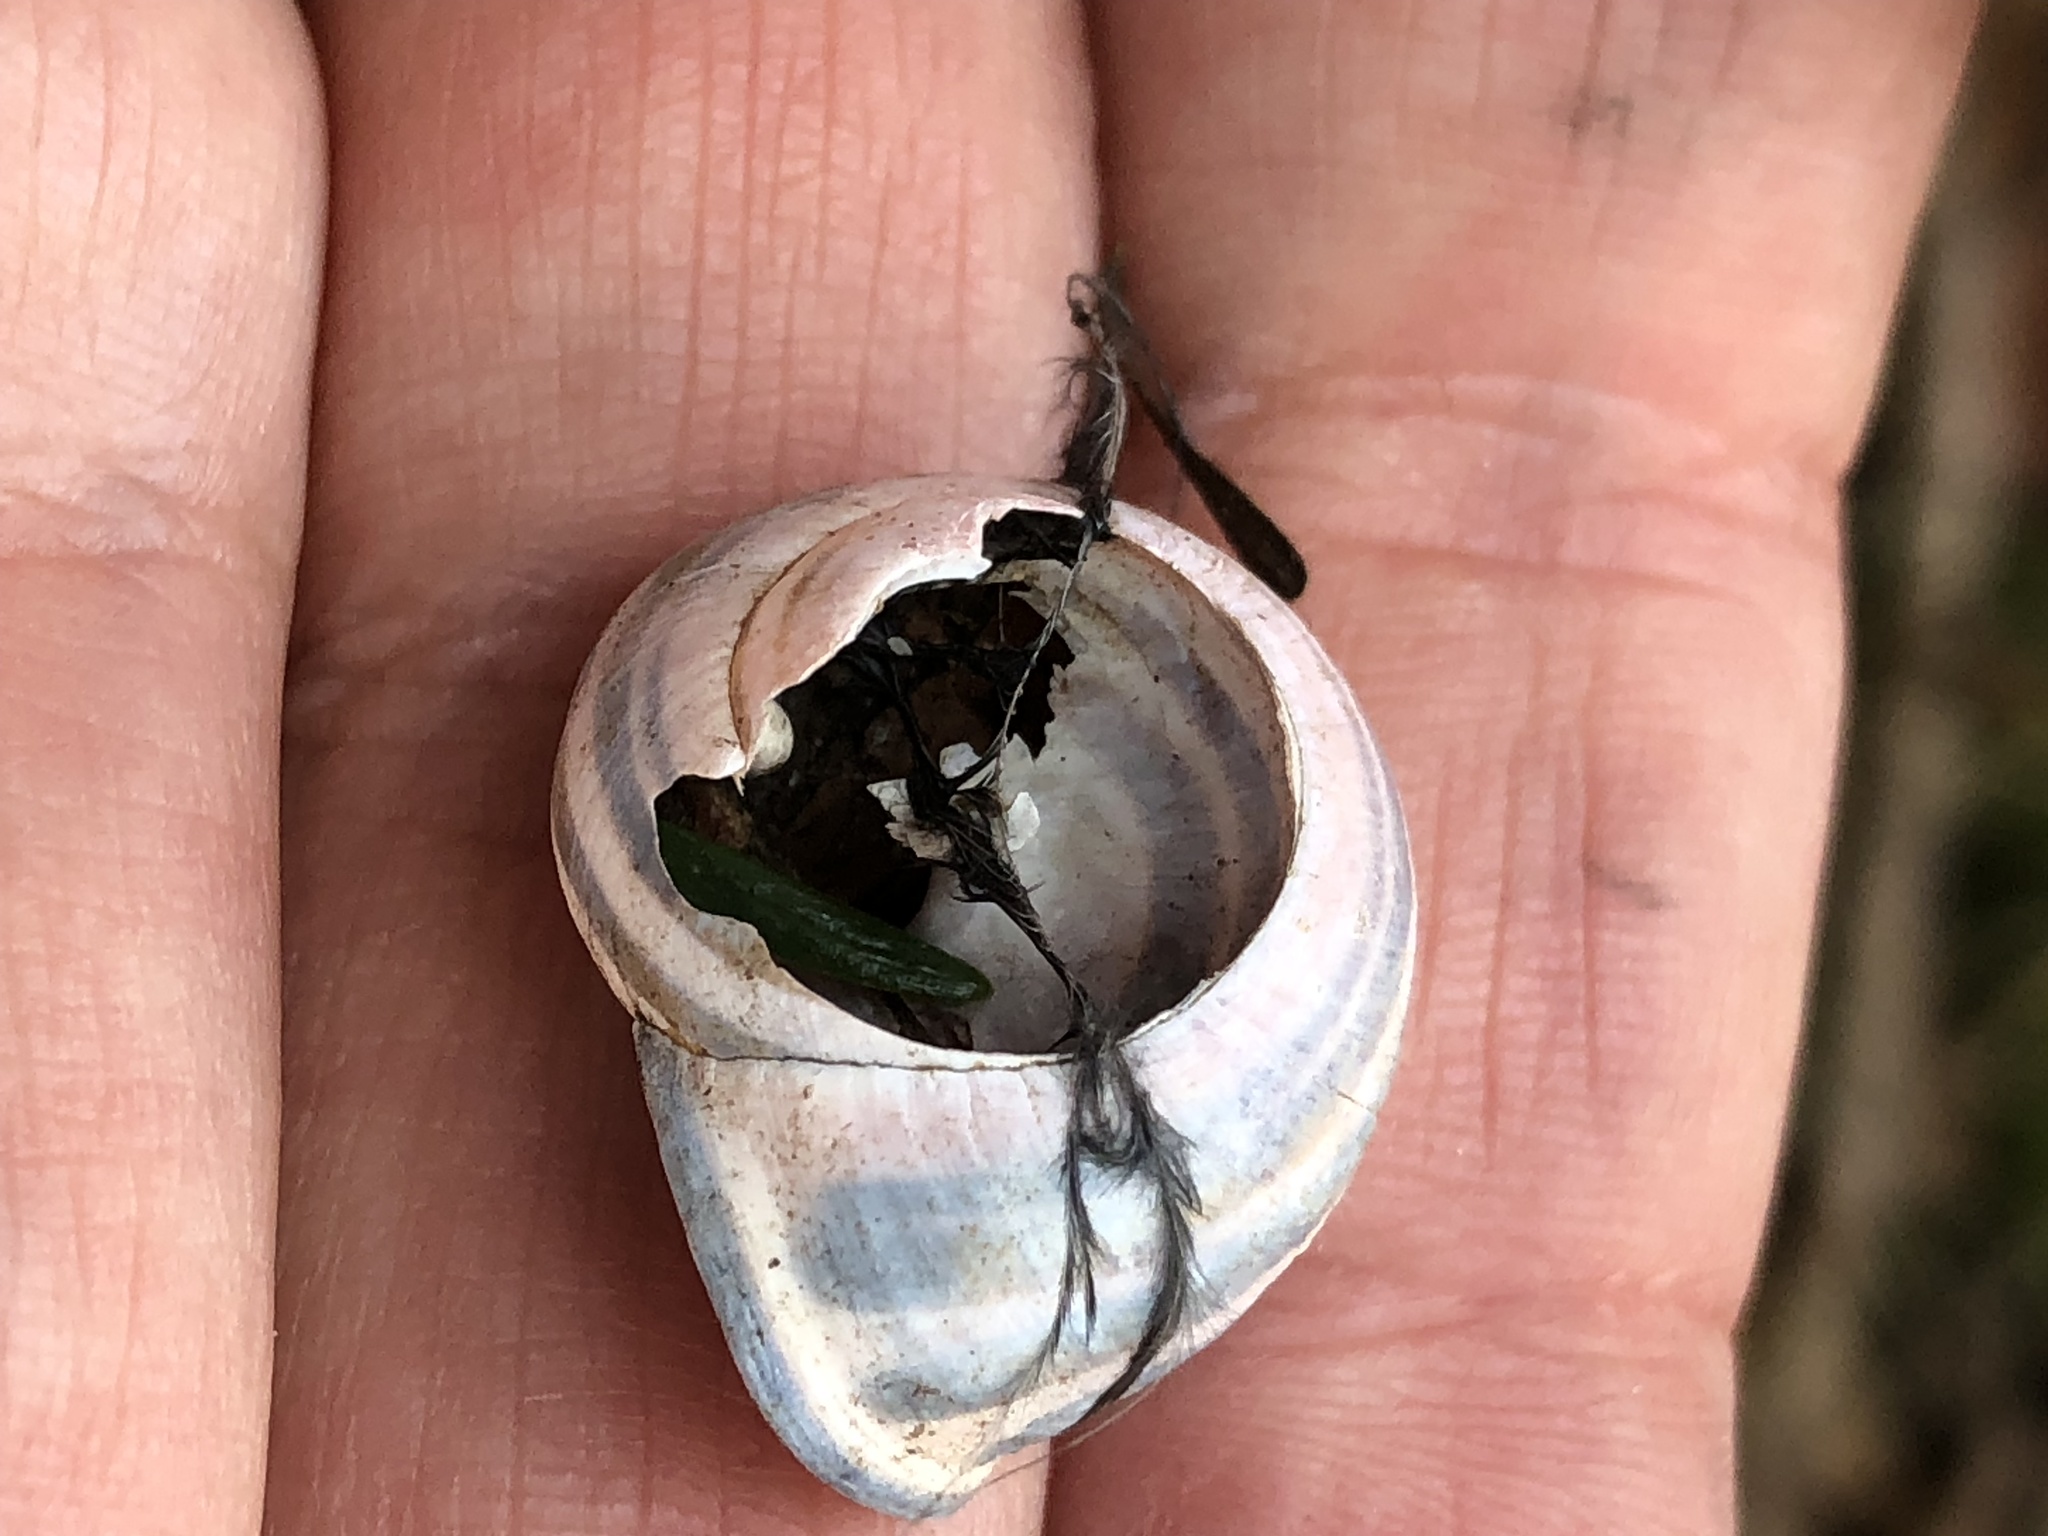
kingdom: Animalia
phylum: Mollusca
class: Gastropoda
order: Stylommatophora
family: Helicidae
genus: Cepaea
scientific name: Cepaea nemoralis
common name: Grovesnail
